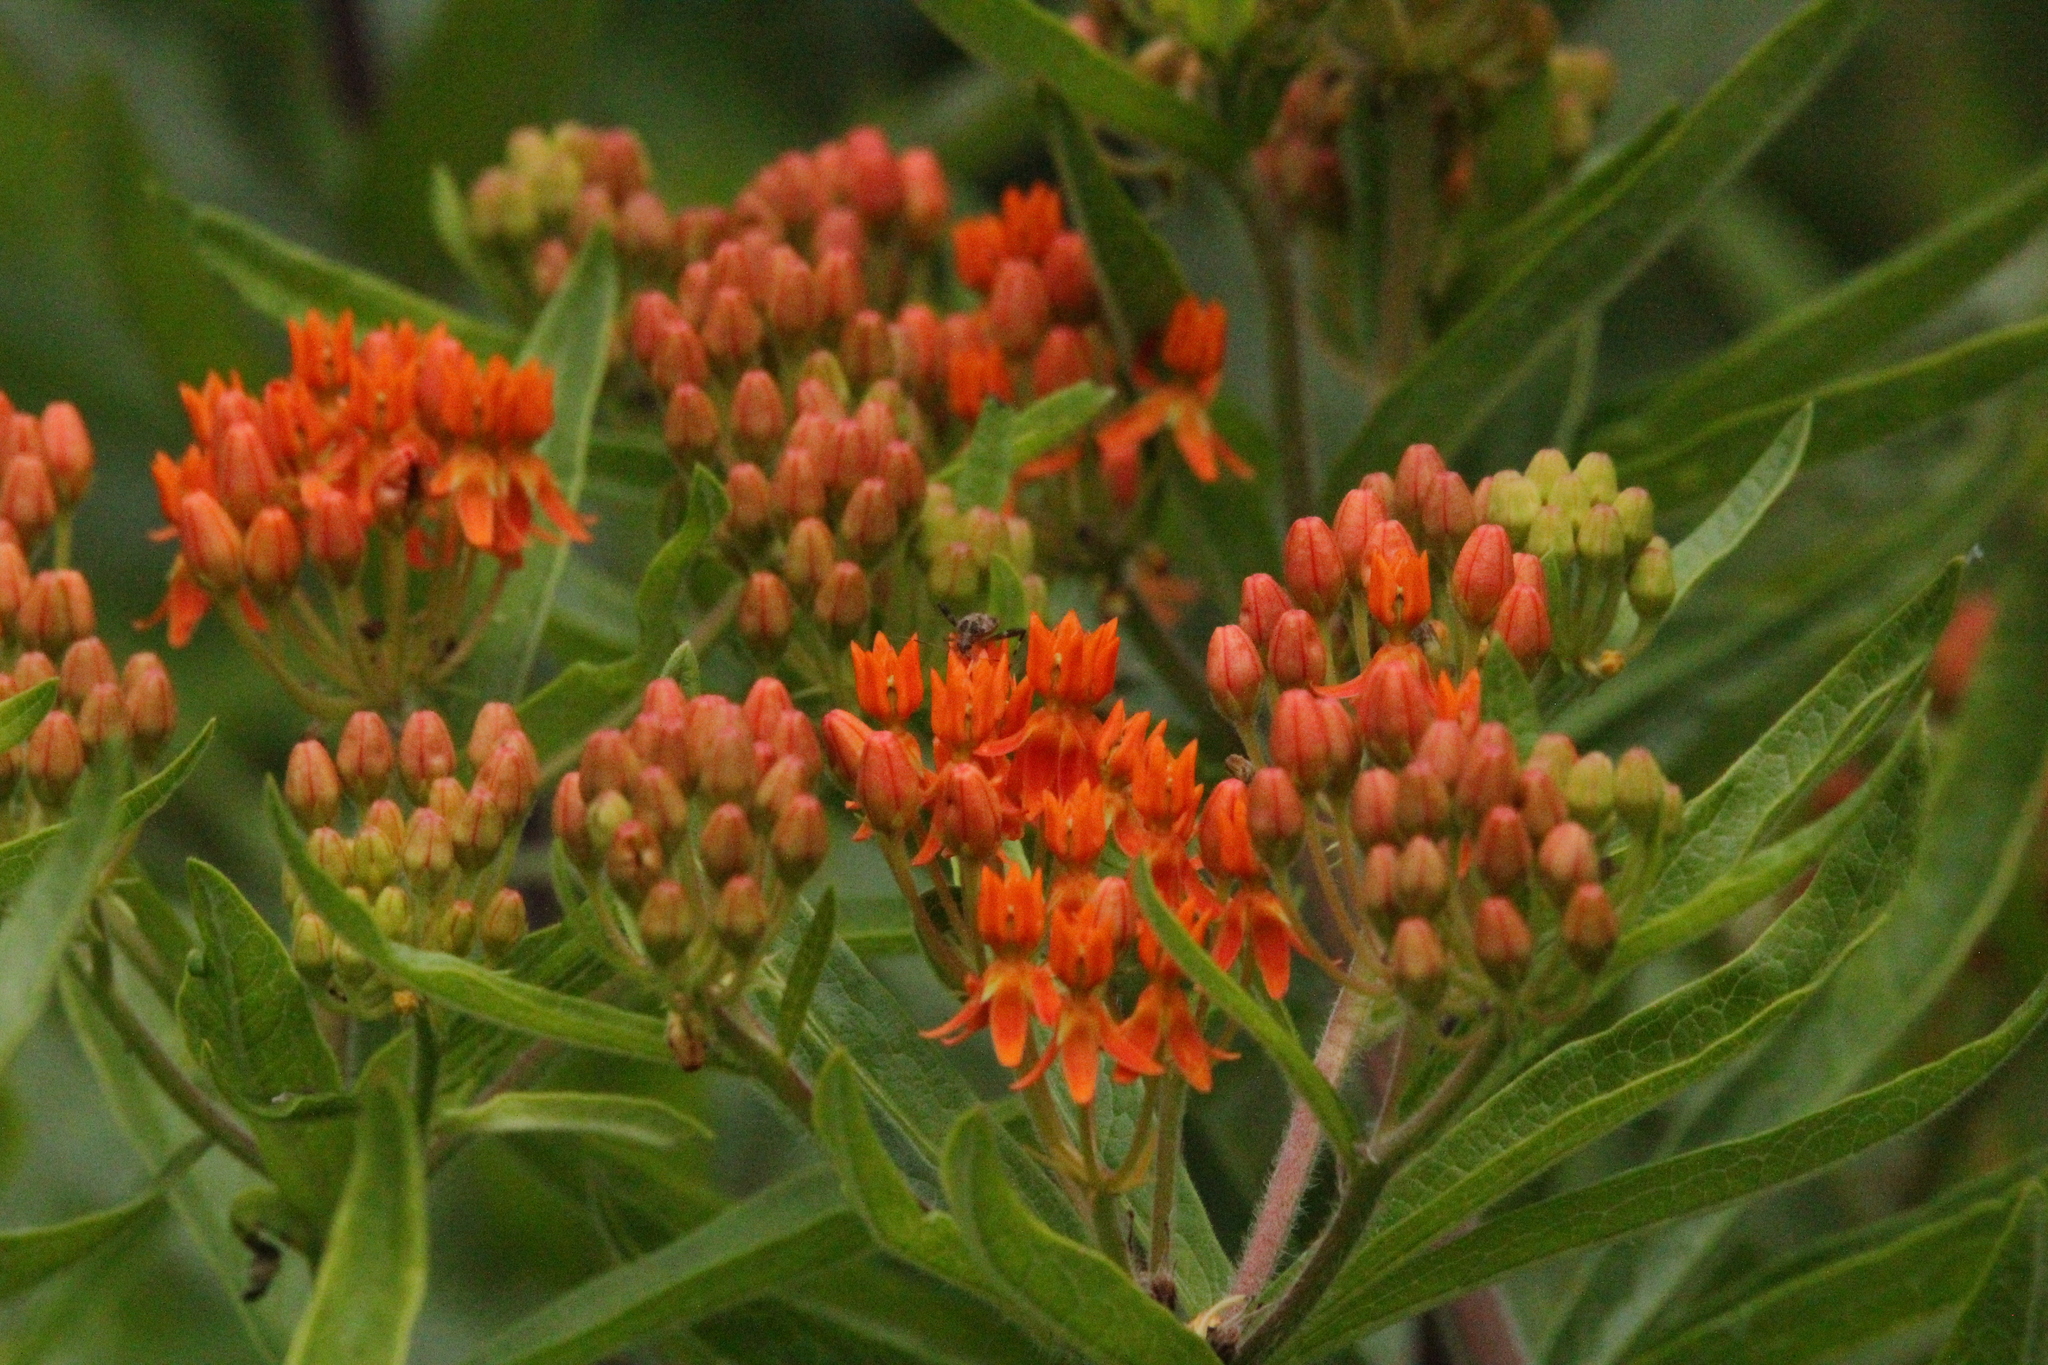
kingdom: Plantae
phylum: Tracheophyta
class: Magnoliopsida
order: Gentianales
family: Apocynaceae
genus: Asclepias
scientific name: Asclepias tuberosa
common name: Butterfly milkweed
